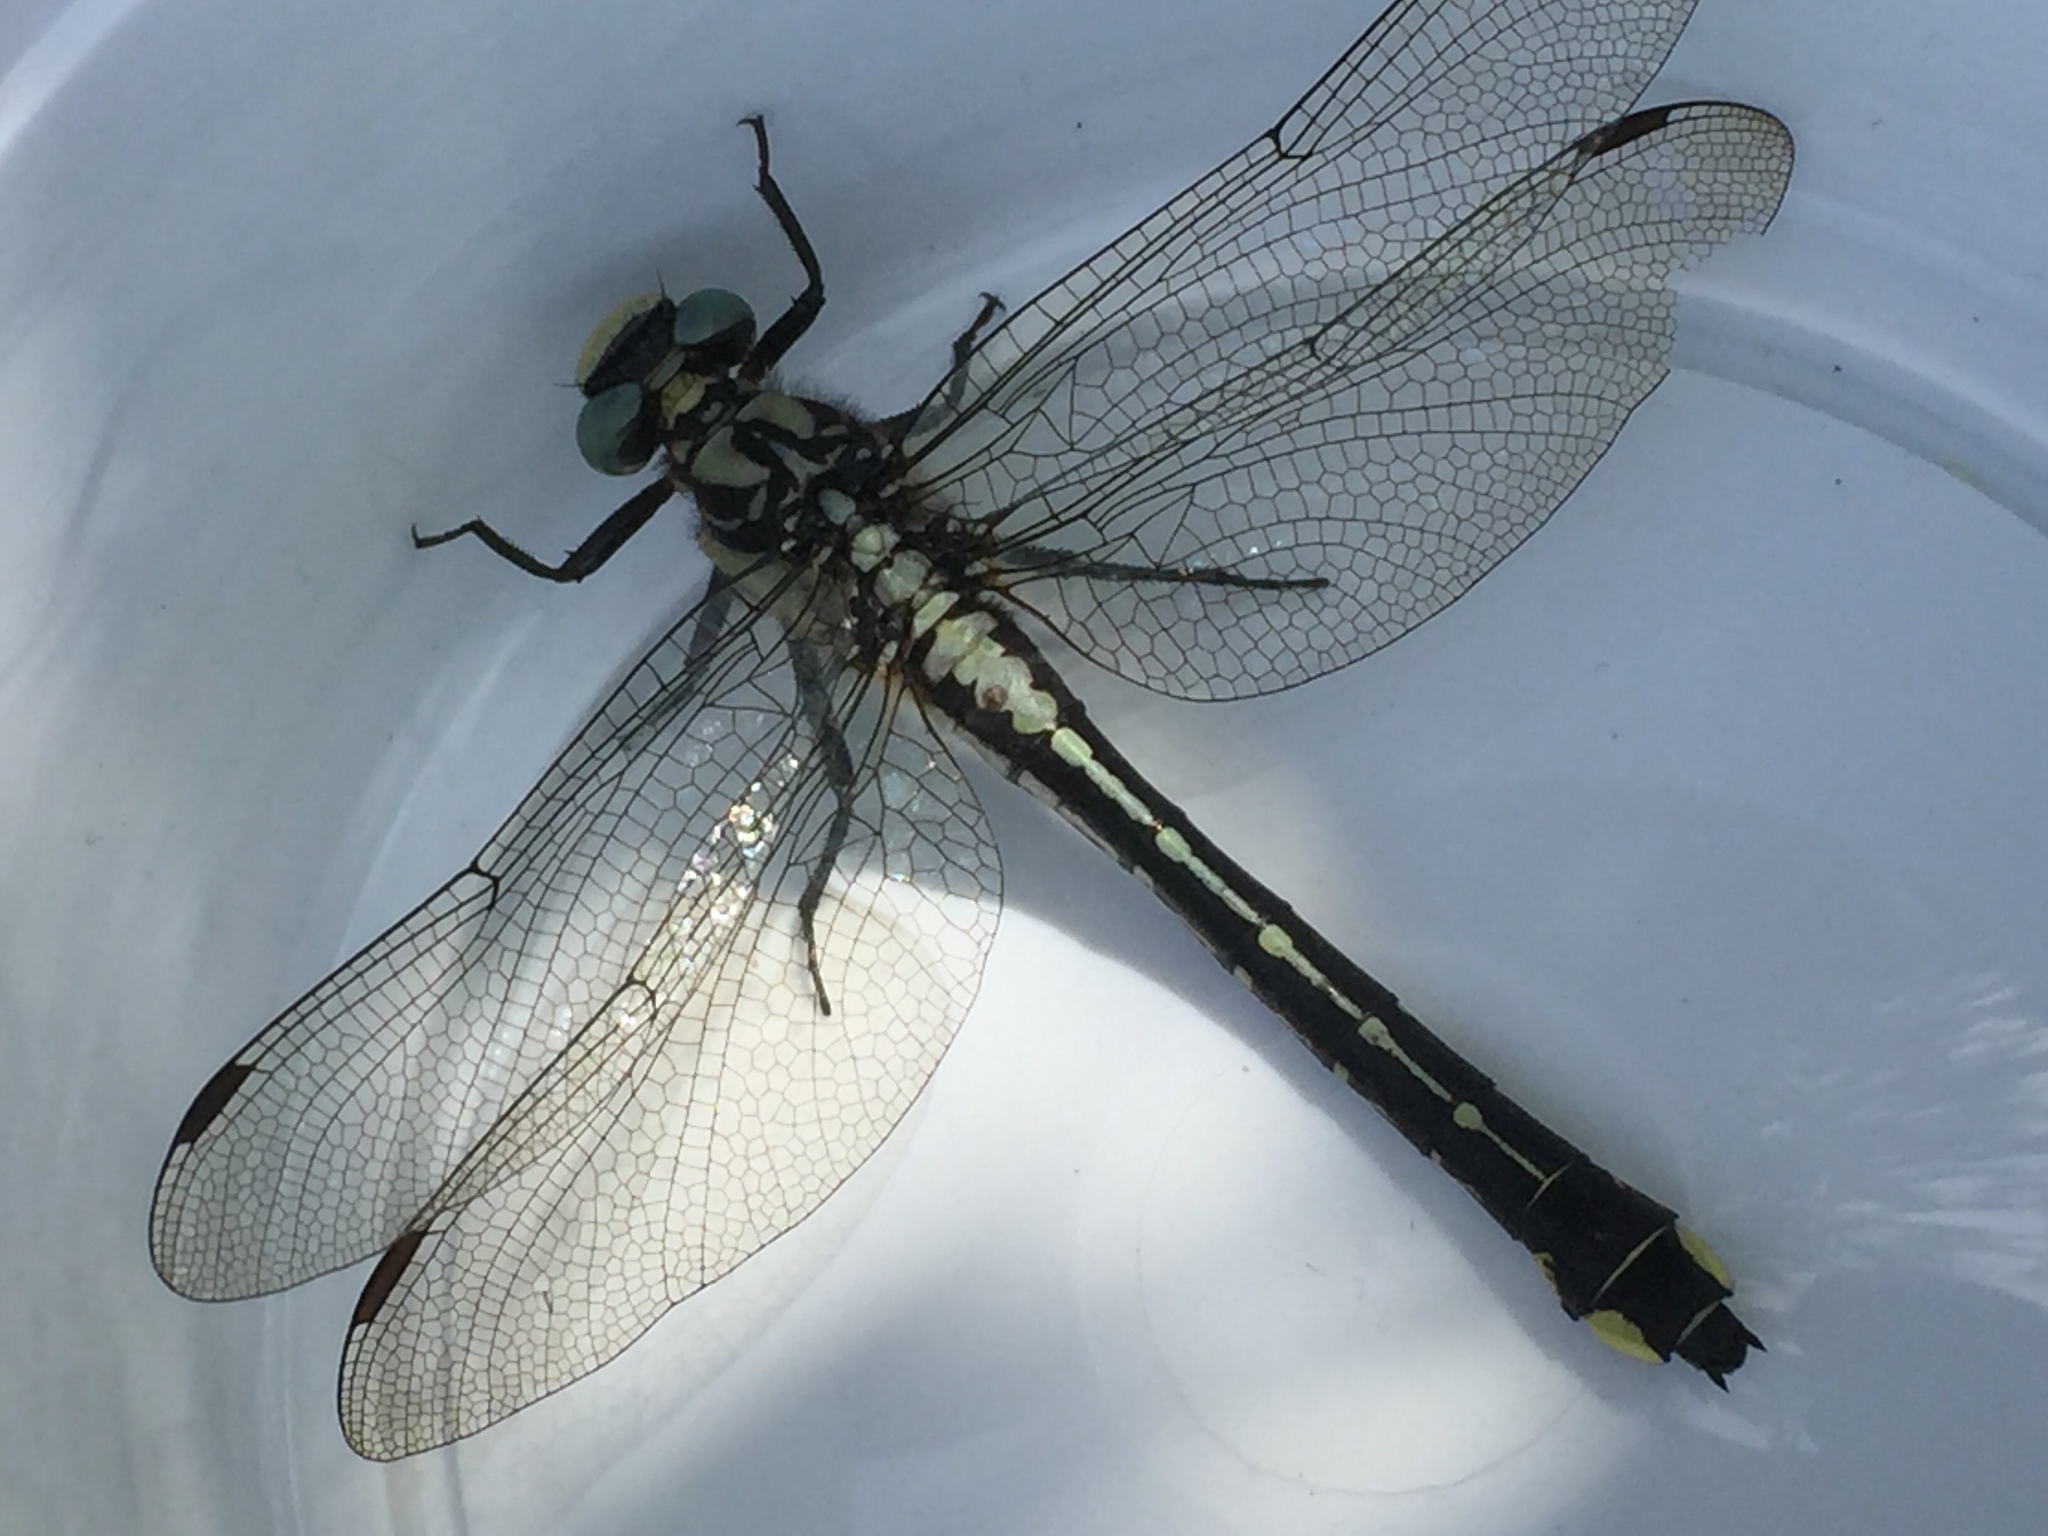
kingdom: Animalia
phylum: Arthropoda
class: Insecta
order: Odonata
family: Gomphidae
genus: Gomphus
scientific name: Gomphus vulgatissimus
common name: Club-tailed dragonfly
